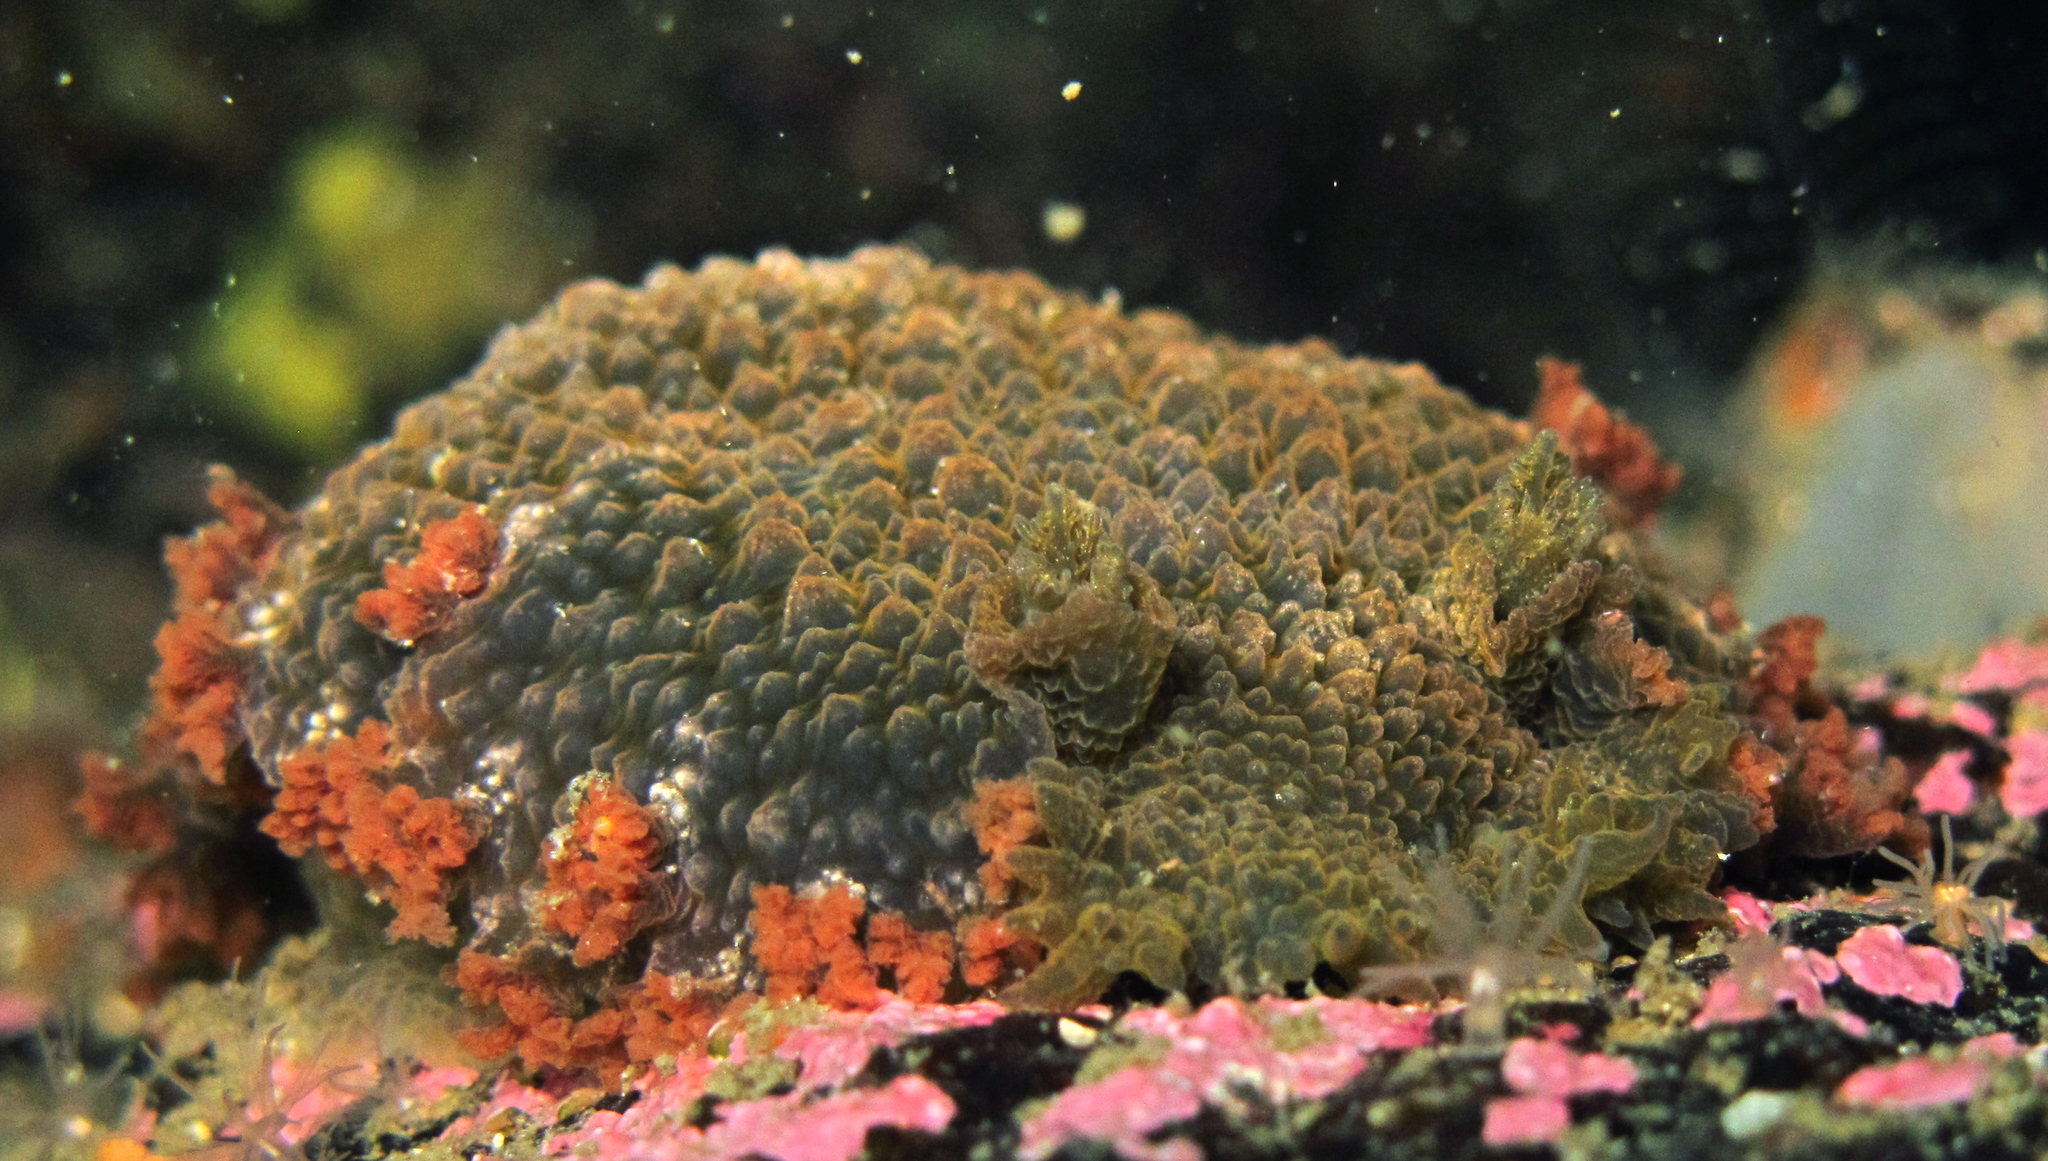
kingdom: Animalia
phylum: Mollusca
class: Gastropoda
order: Nudibranchia
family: Tritoniidae
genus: Tritonia
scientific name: Tritonia hombergii
